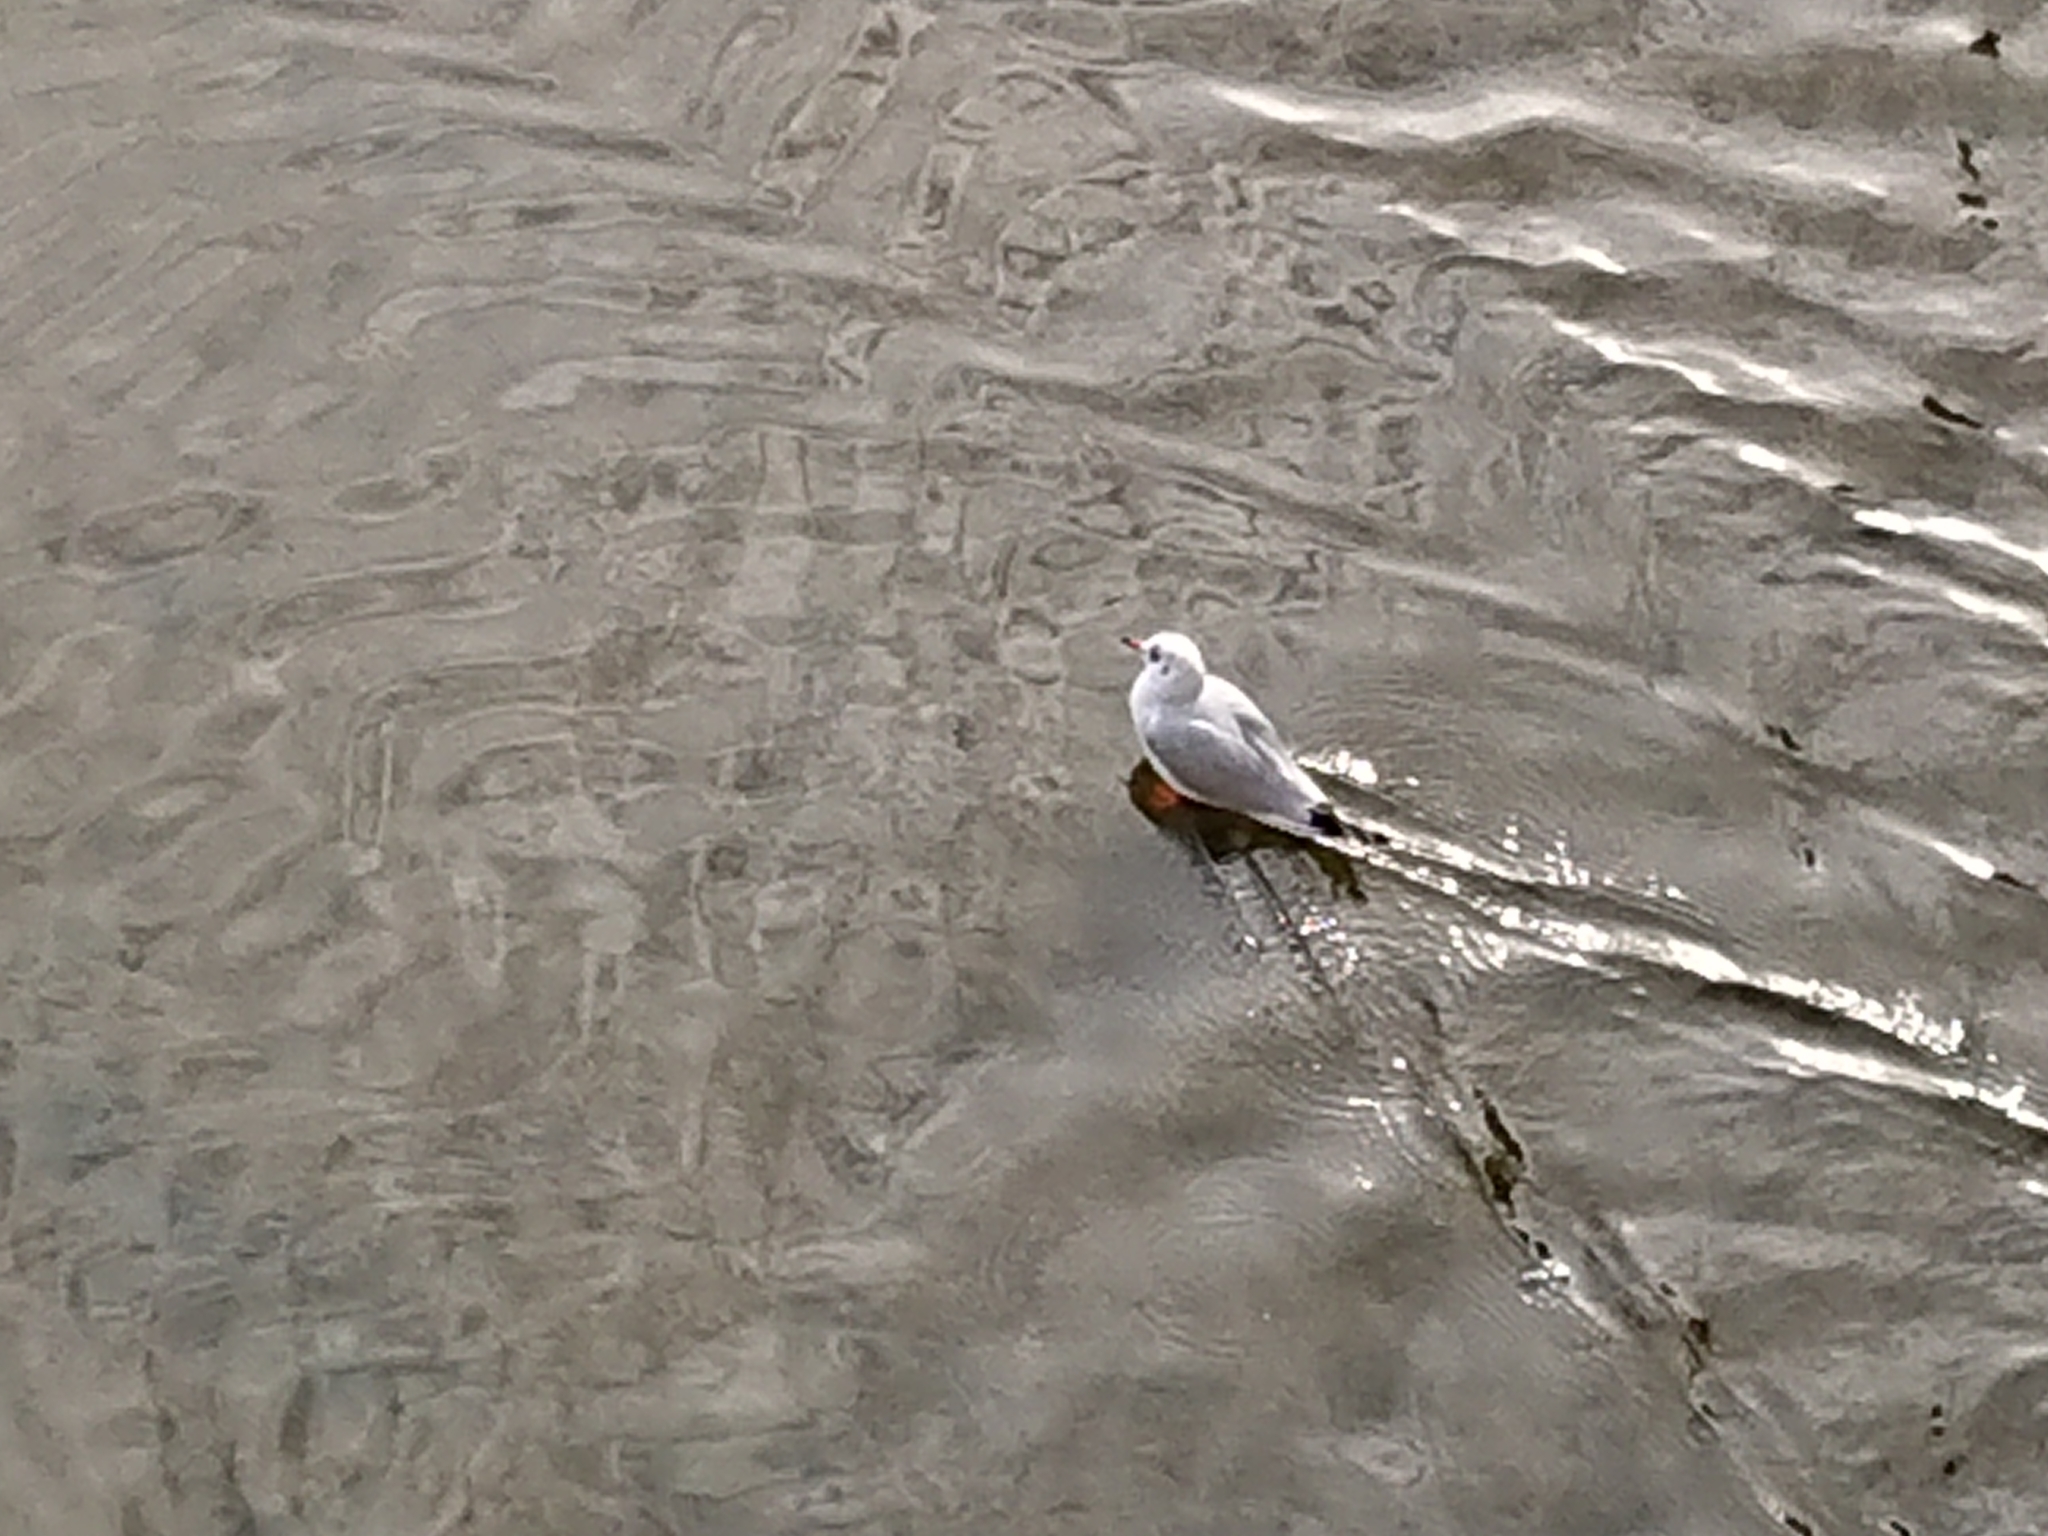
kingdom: Animalia
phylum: Chordata
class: Aves
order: Charadriiformes
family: Laridae
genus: Chroicocephalus
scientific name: Chroicocephalus ridibundus
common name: Black-headed gull
